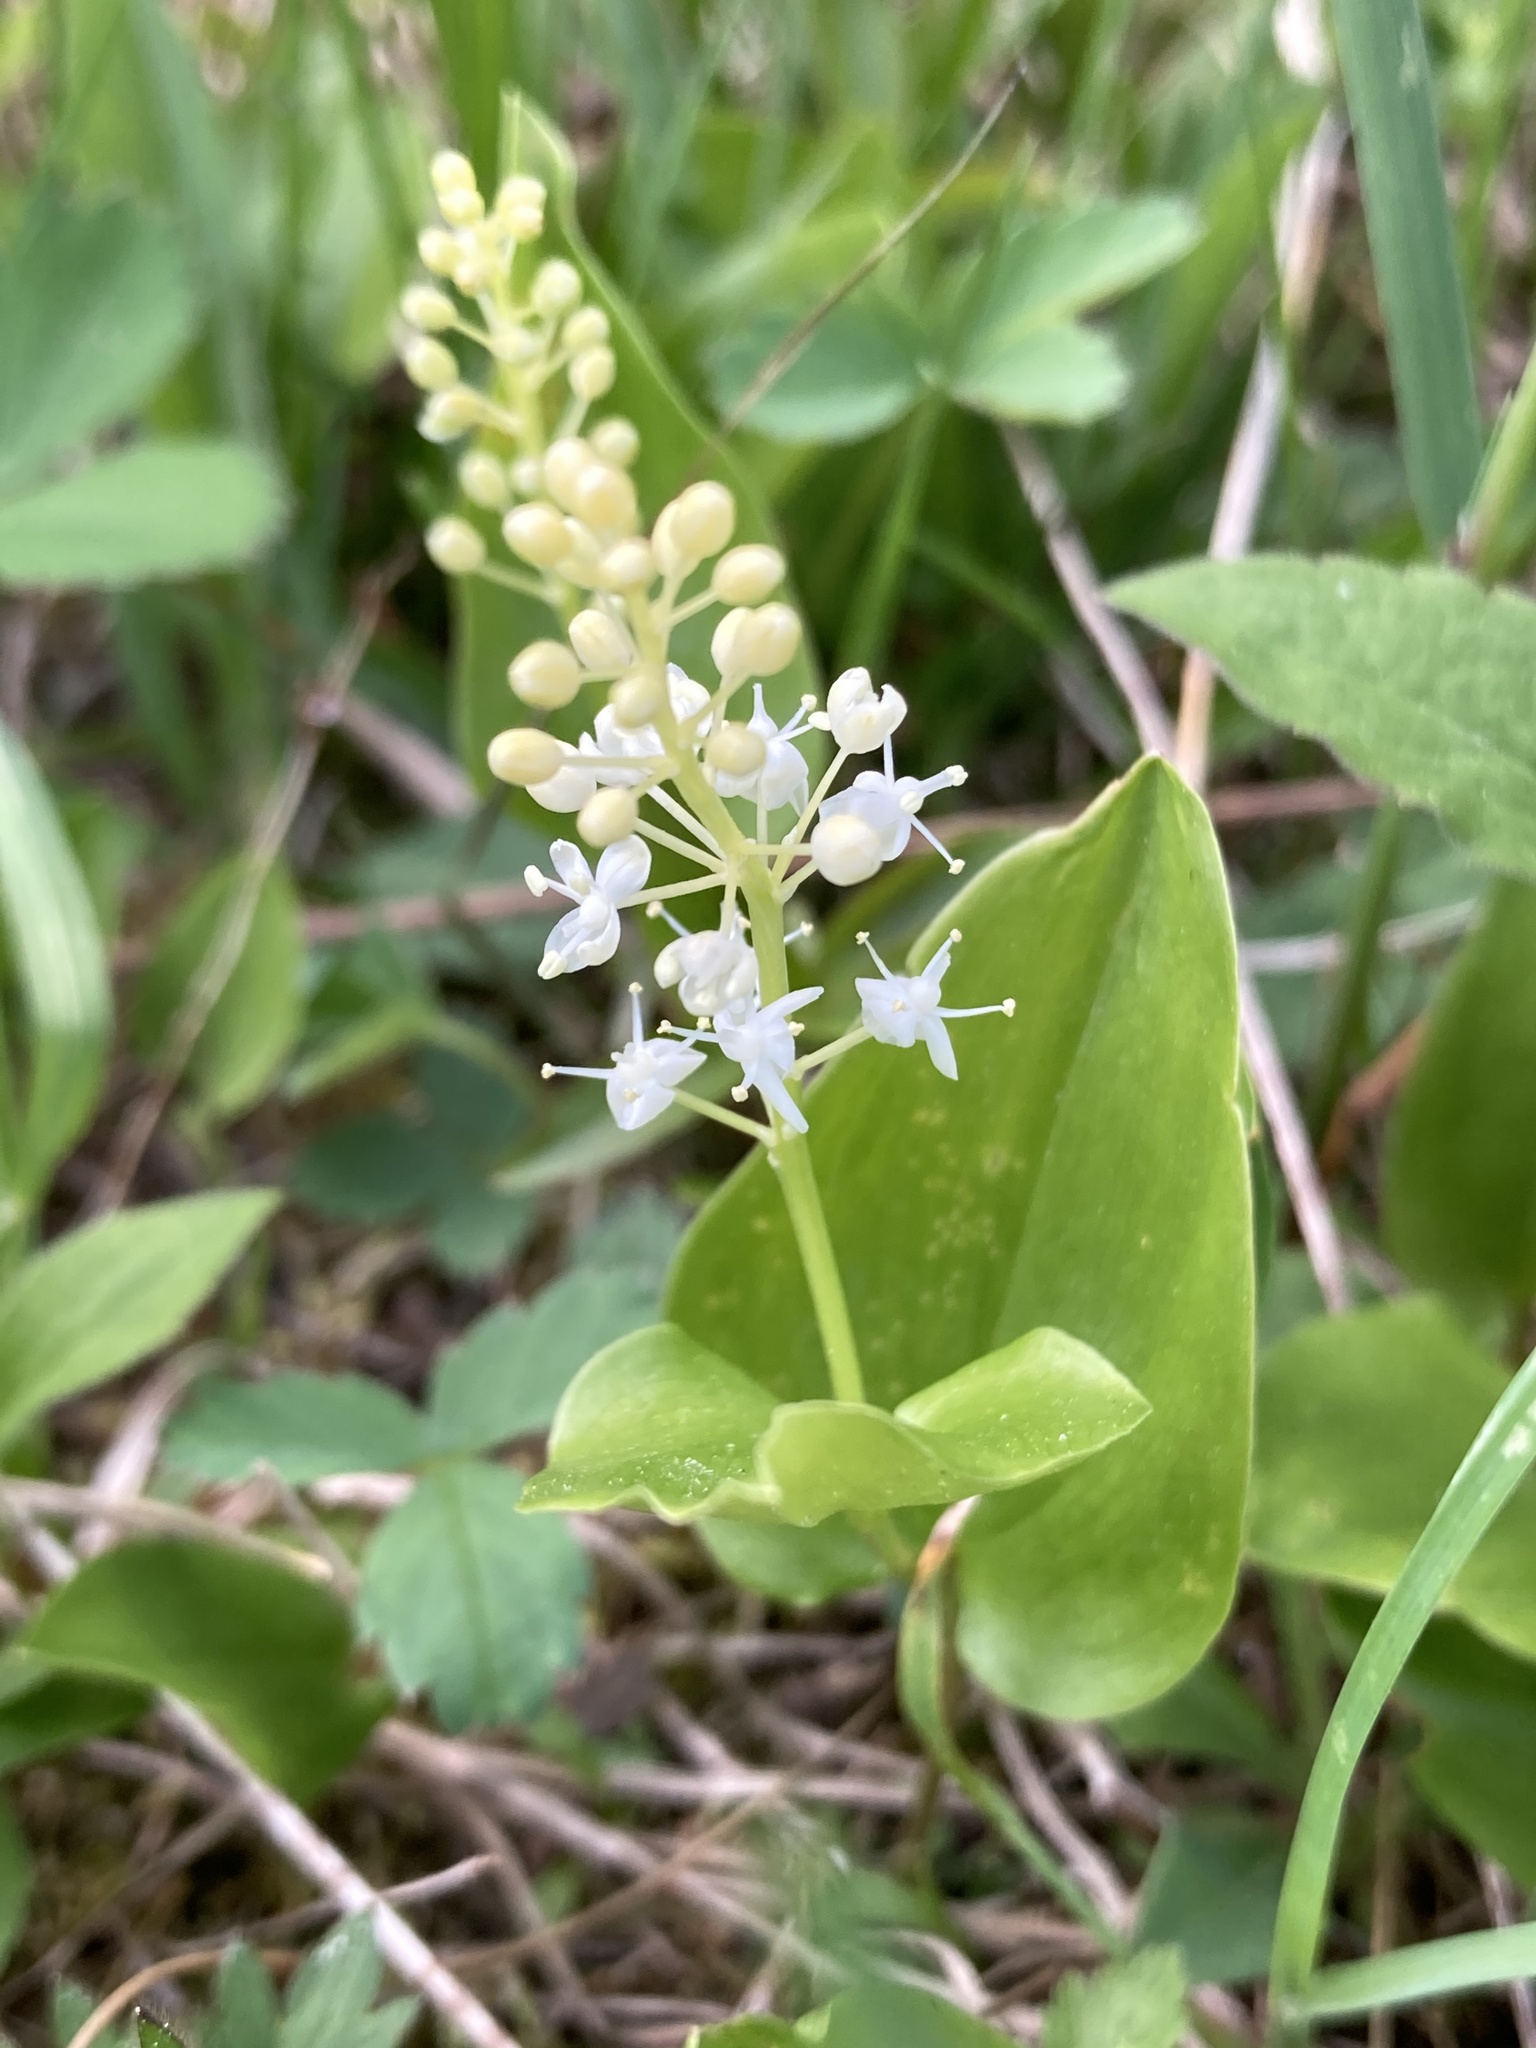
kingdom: Plantae
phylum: Tracheophyta
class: Liliopsida
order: Asparagales
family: Asparagaceae
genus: Maianthemum
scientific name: Maianthemum canadense
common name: False lily-of-the-valley
